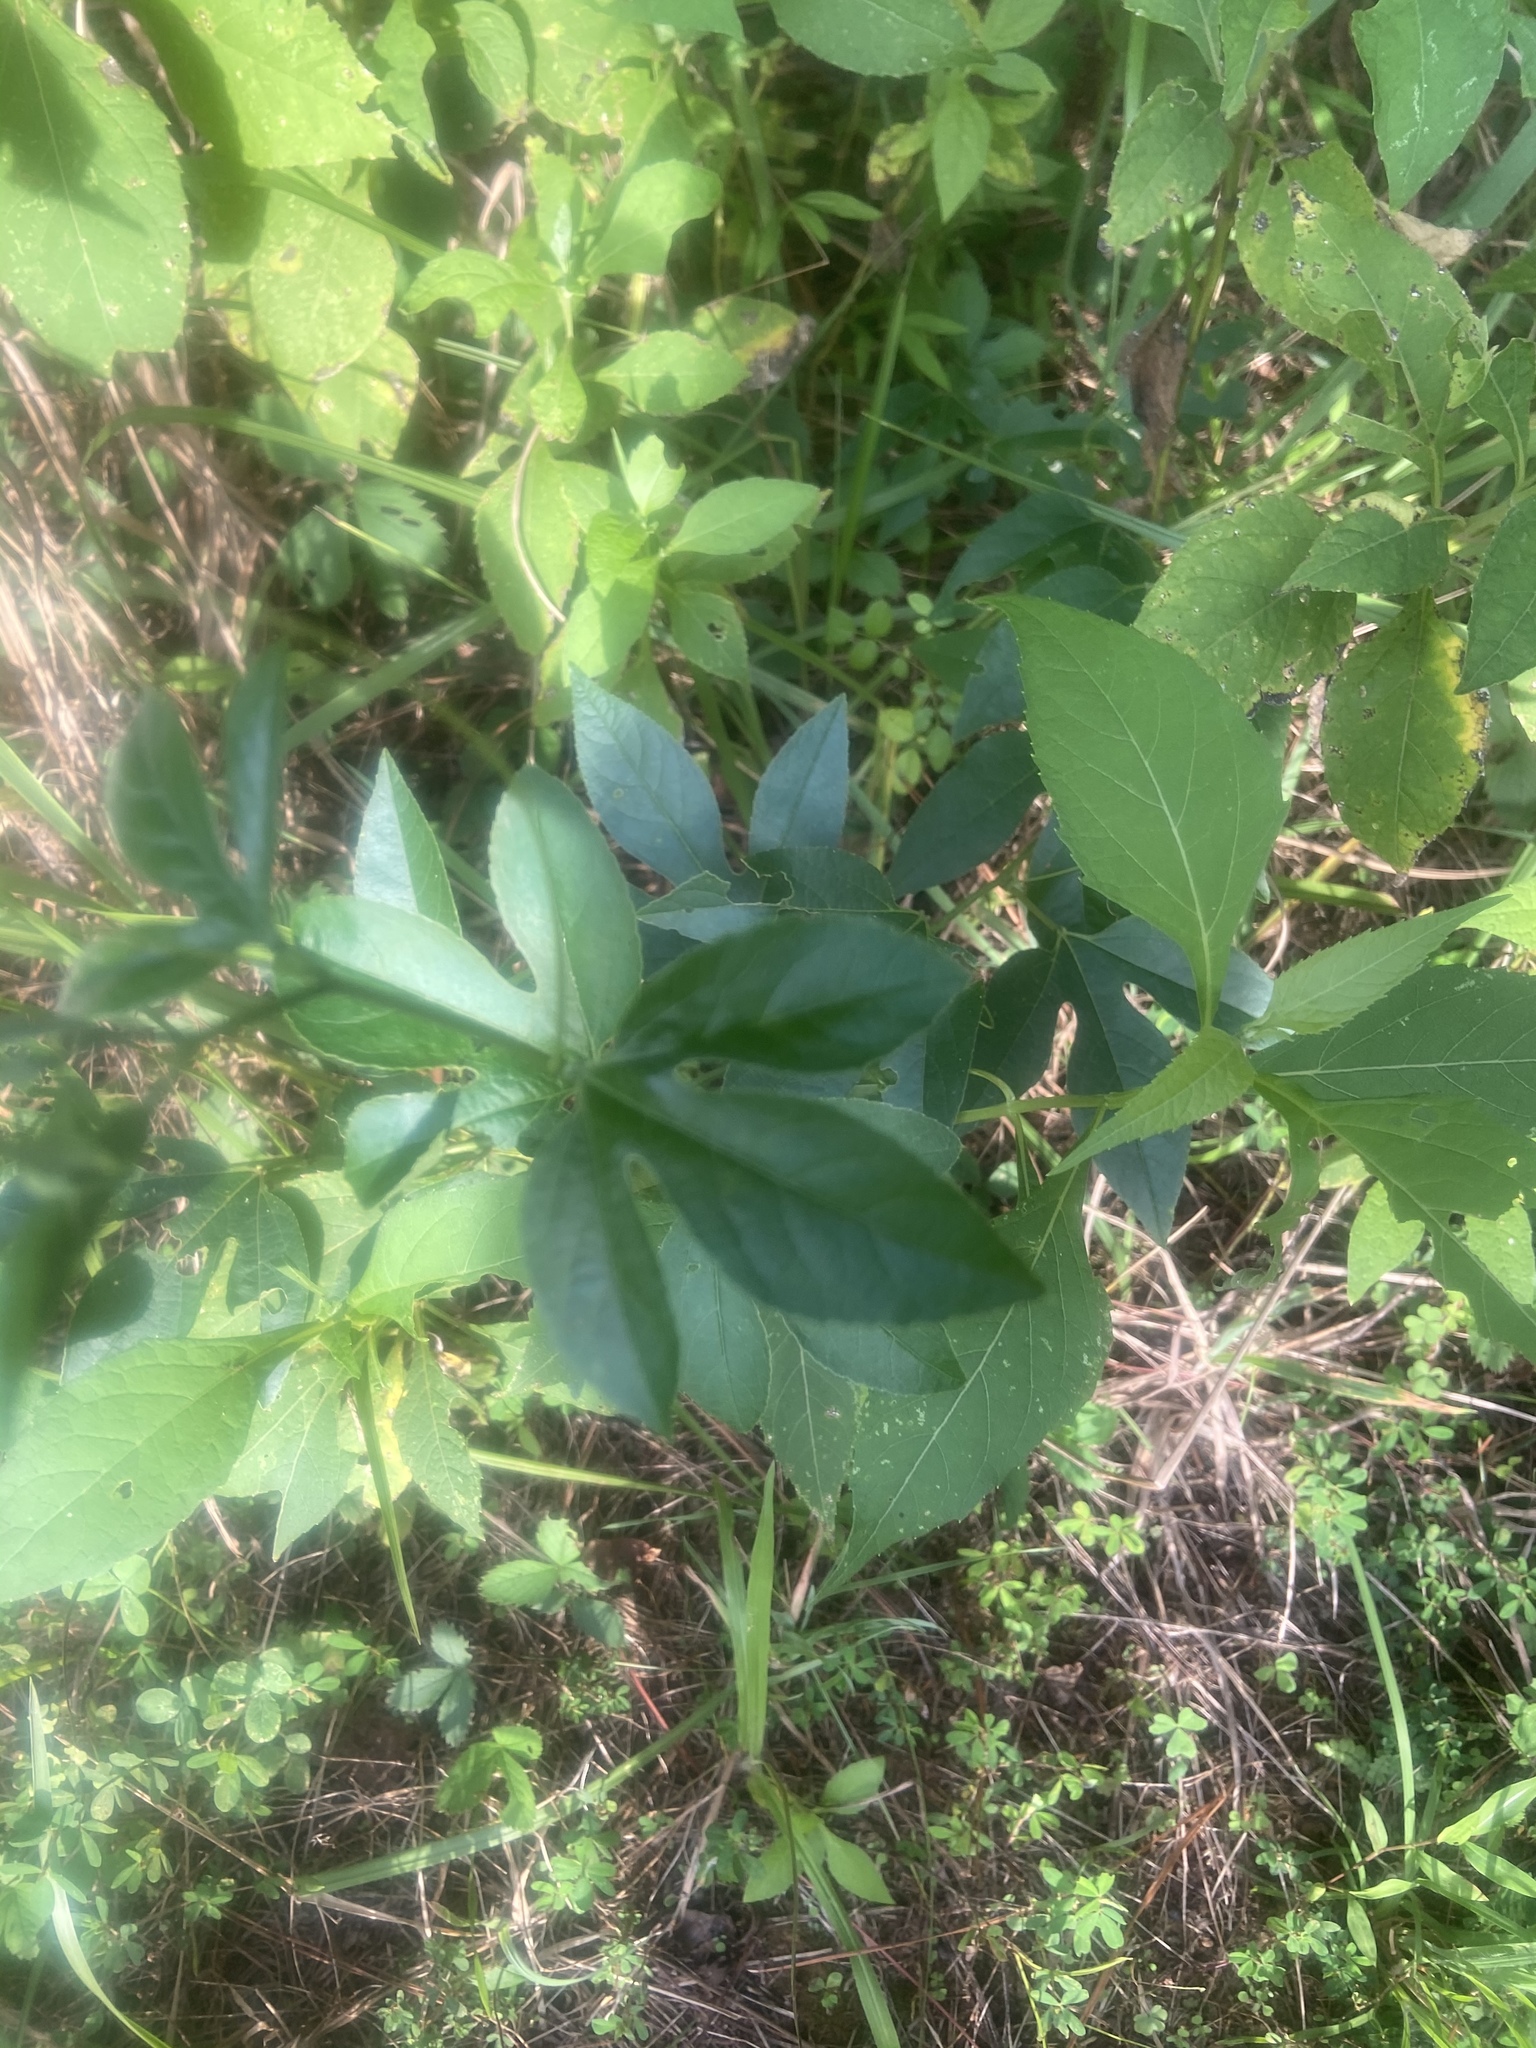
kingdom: Plantae
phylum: Tracheophyta
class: Magnoliopsida
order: Malpighiales
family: Passifloraceae
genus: Passiflora
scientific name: Passiflora incarnata
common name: Apricot-vine
